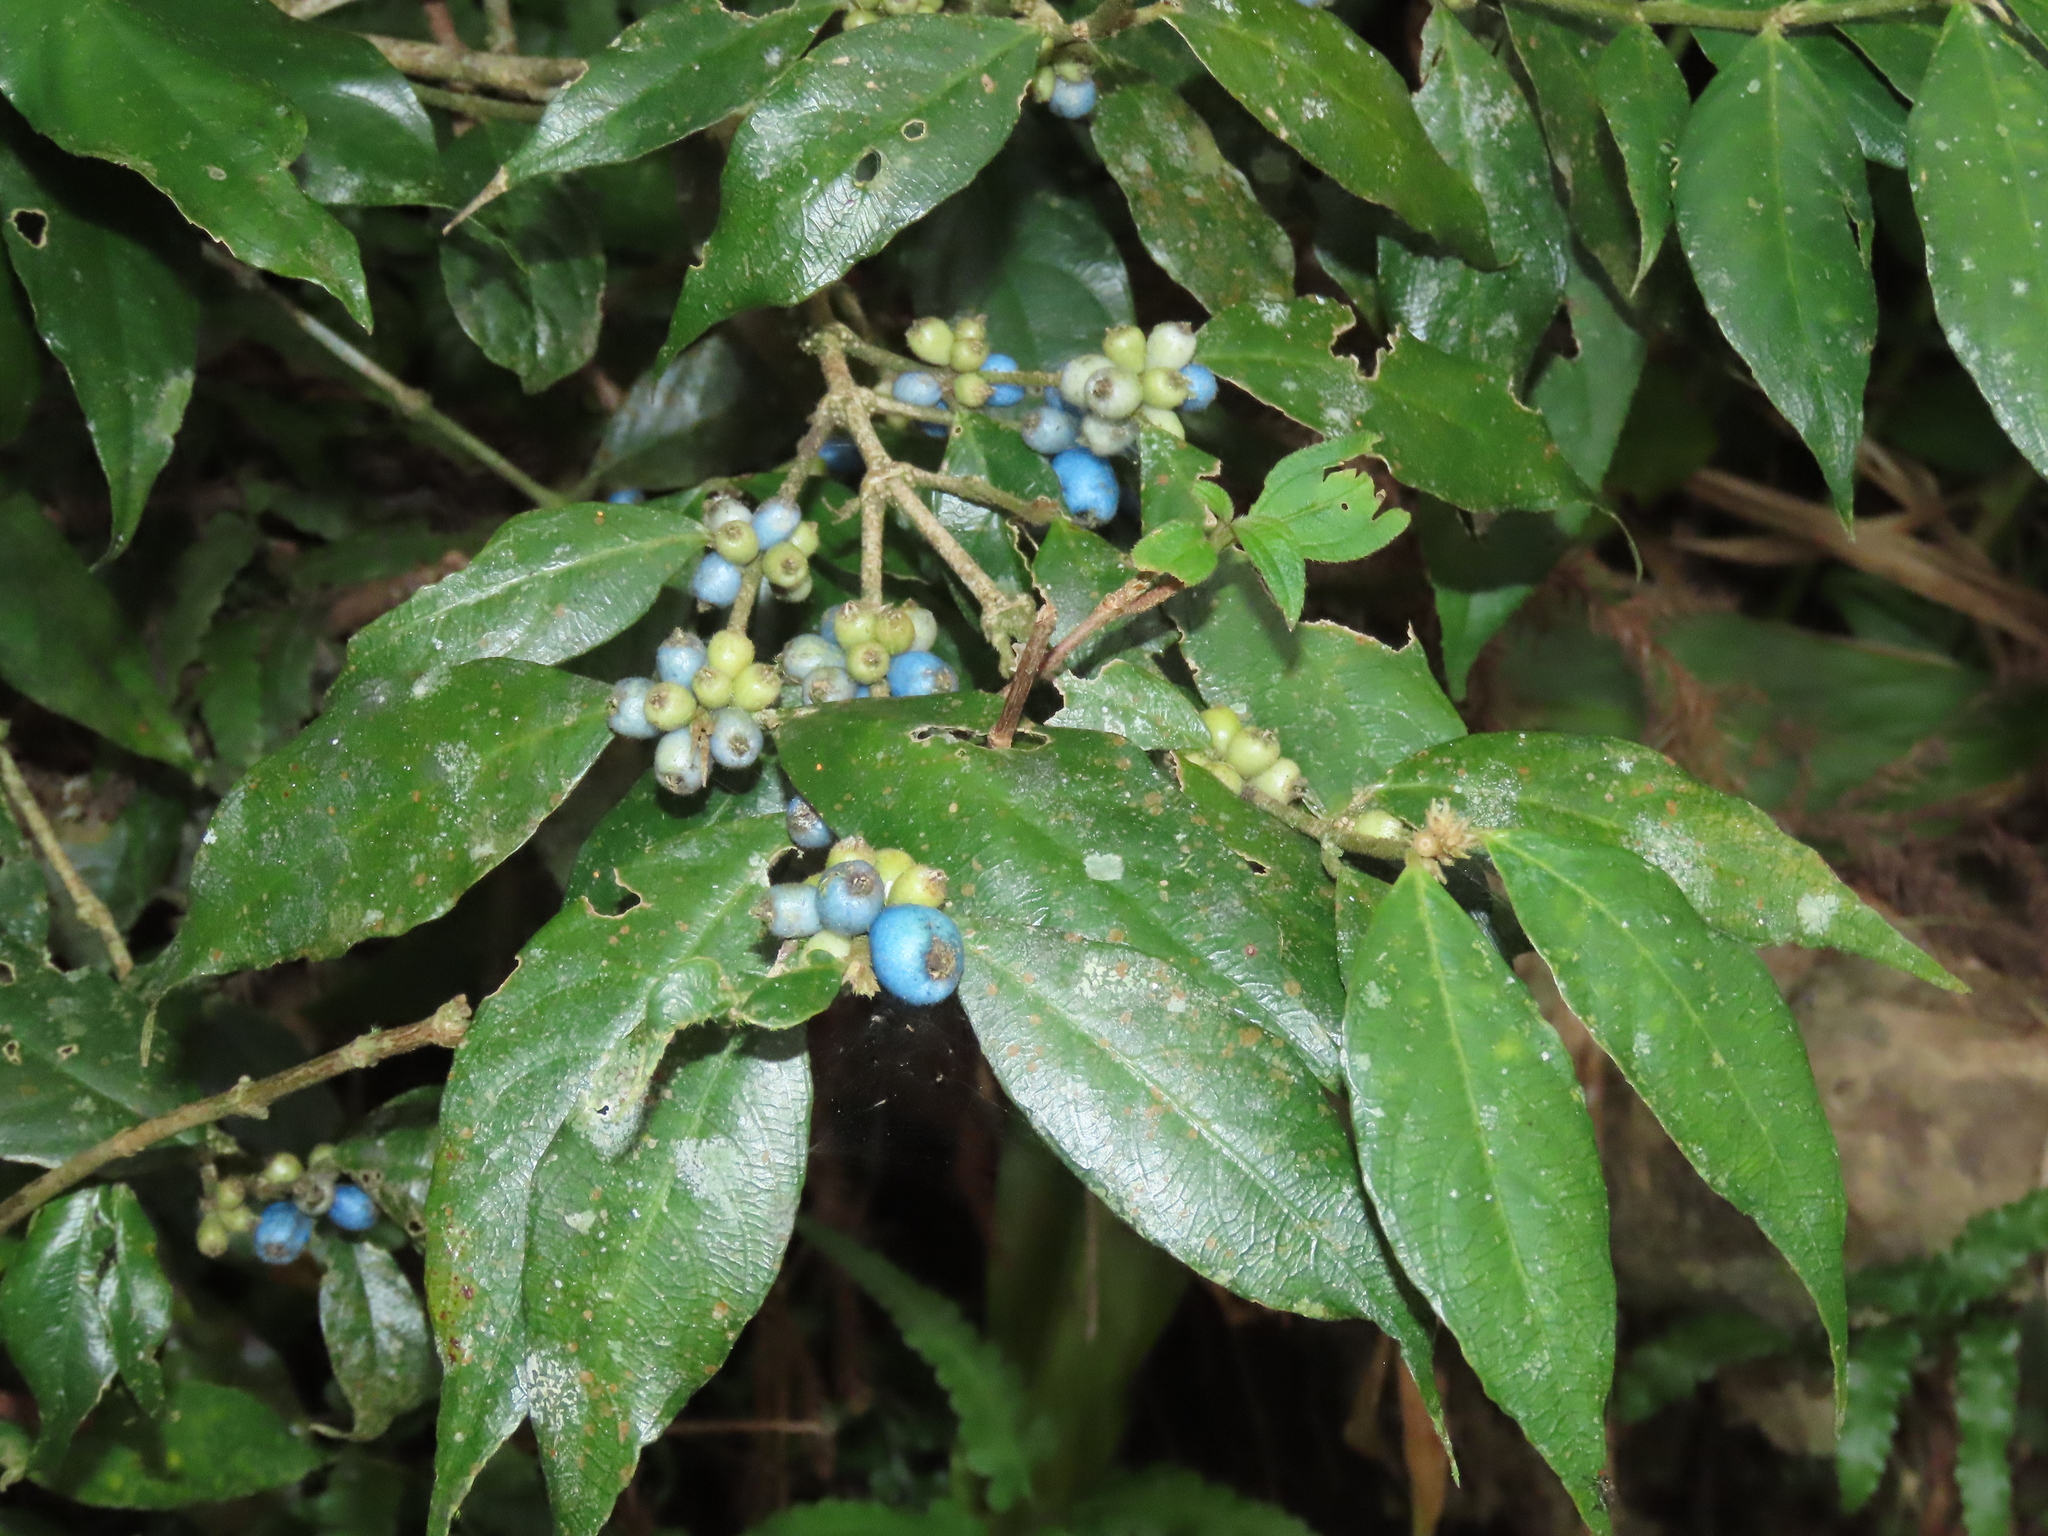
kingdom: Plantae
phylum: Tracheophyta
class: Magnoliopsida
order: Gentianales
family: Rubiaceae
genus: Lasianthus
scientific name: Lasianthus formosensis
